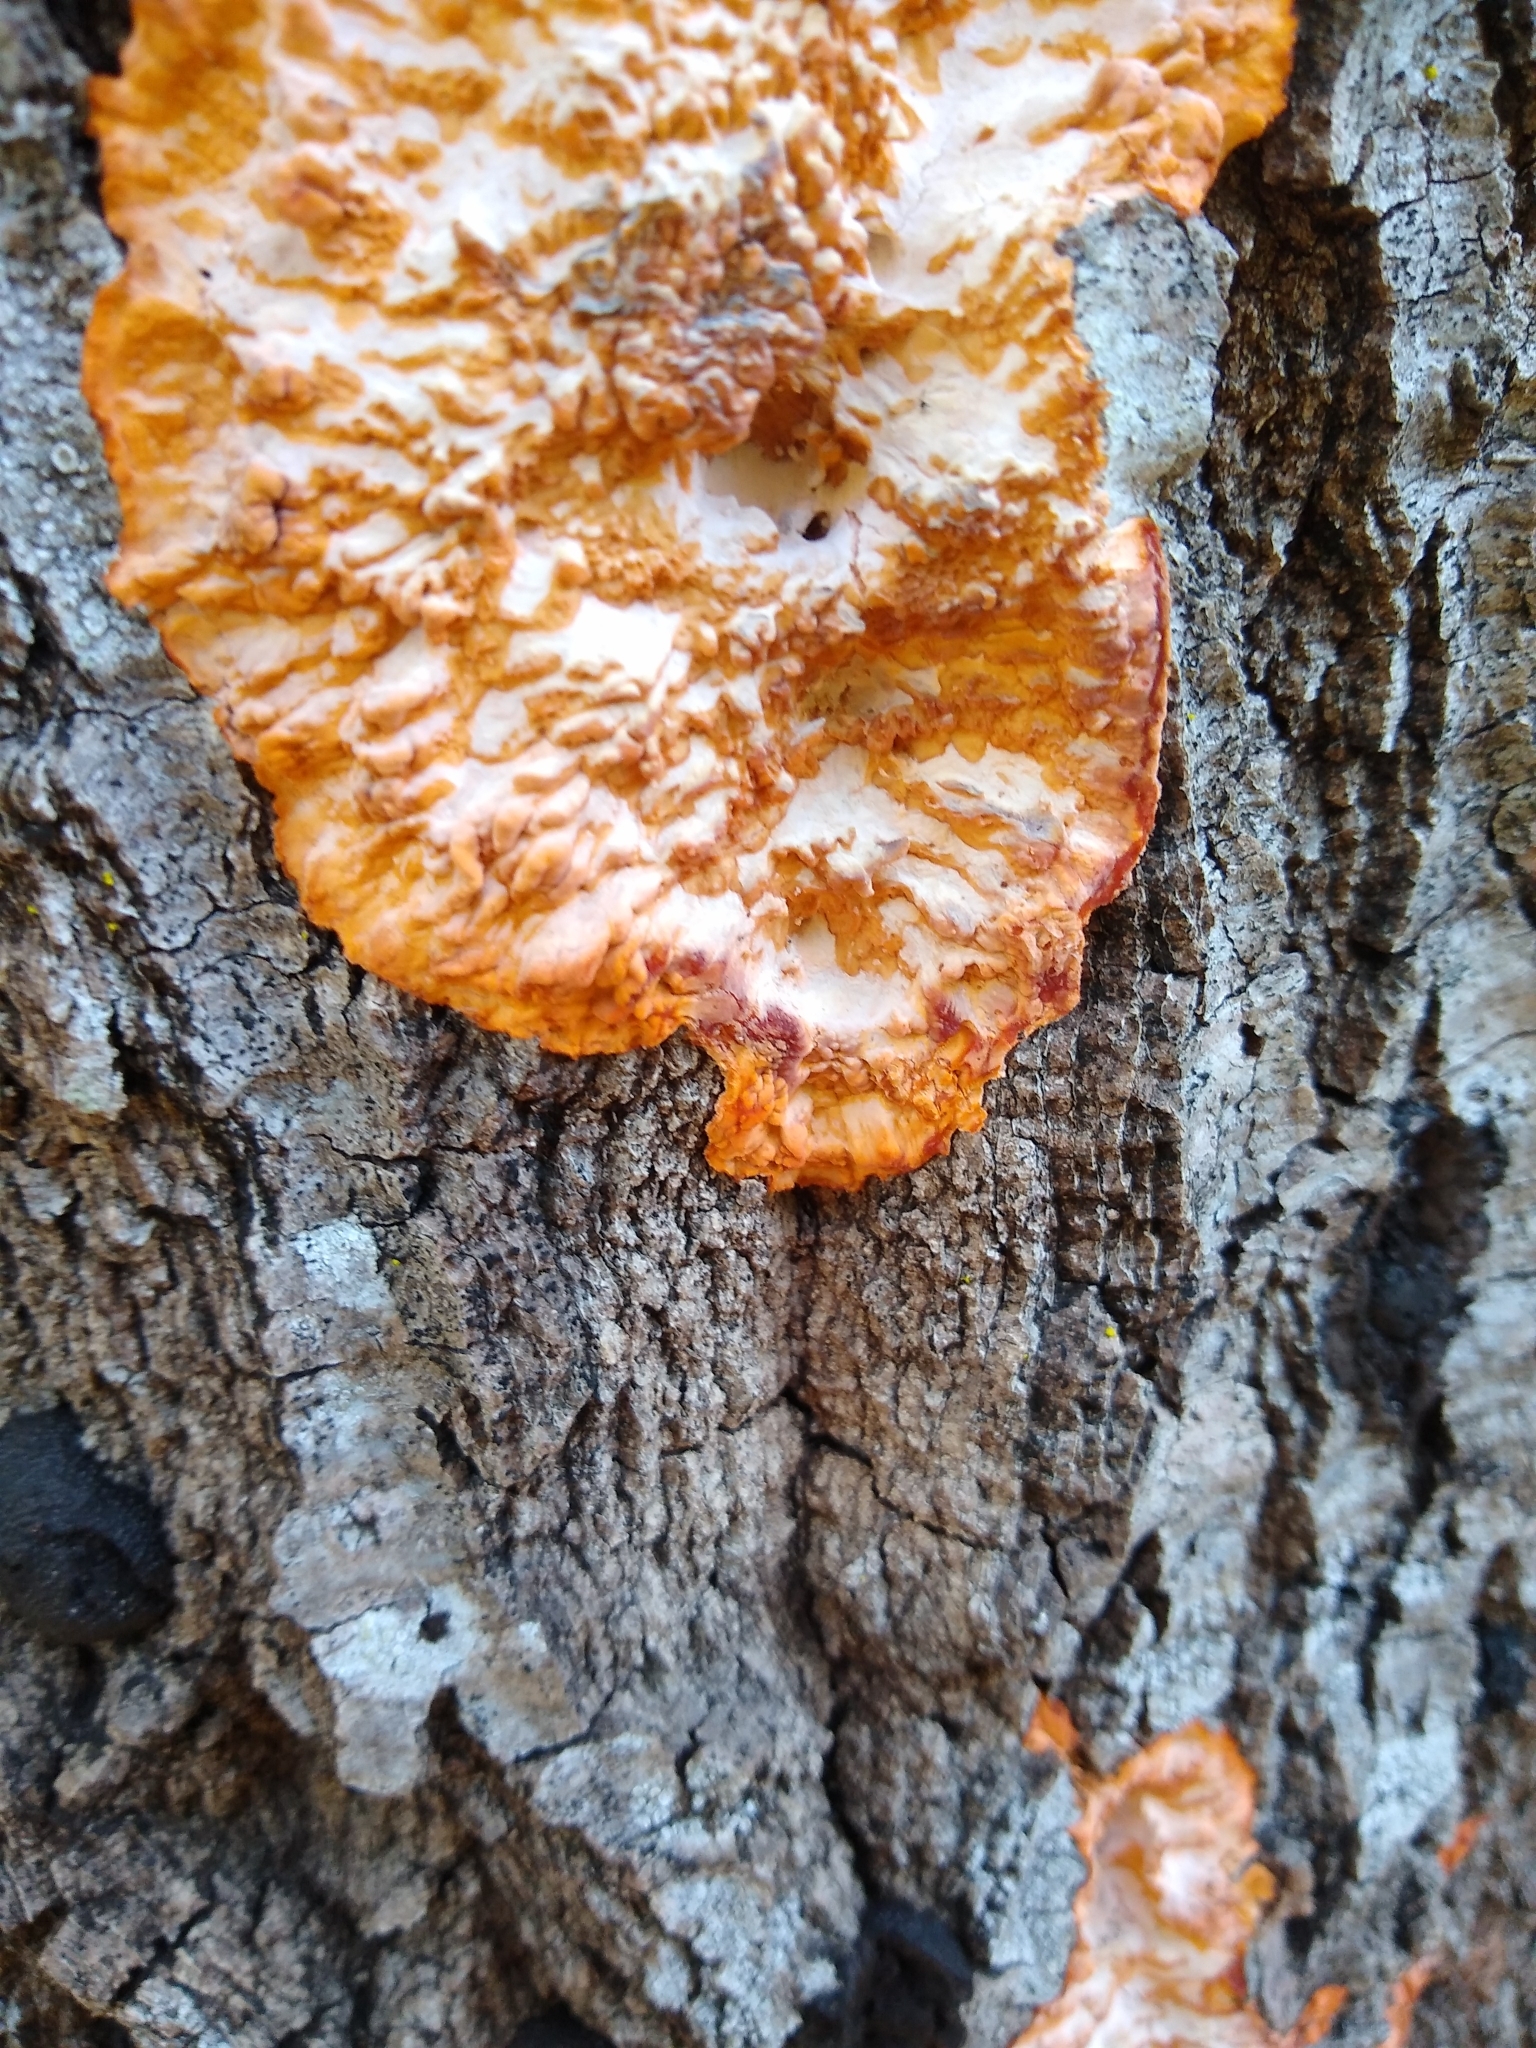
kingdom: Fungi
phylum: Basidiomycota
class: Agaricomycetes
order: Polyporales
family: Meruliaceae
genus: Phlebia
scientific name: Phlebia radiata
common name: Wrinkled crust
